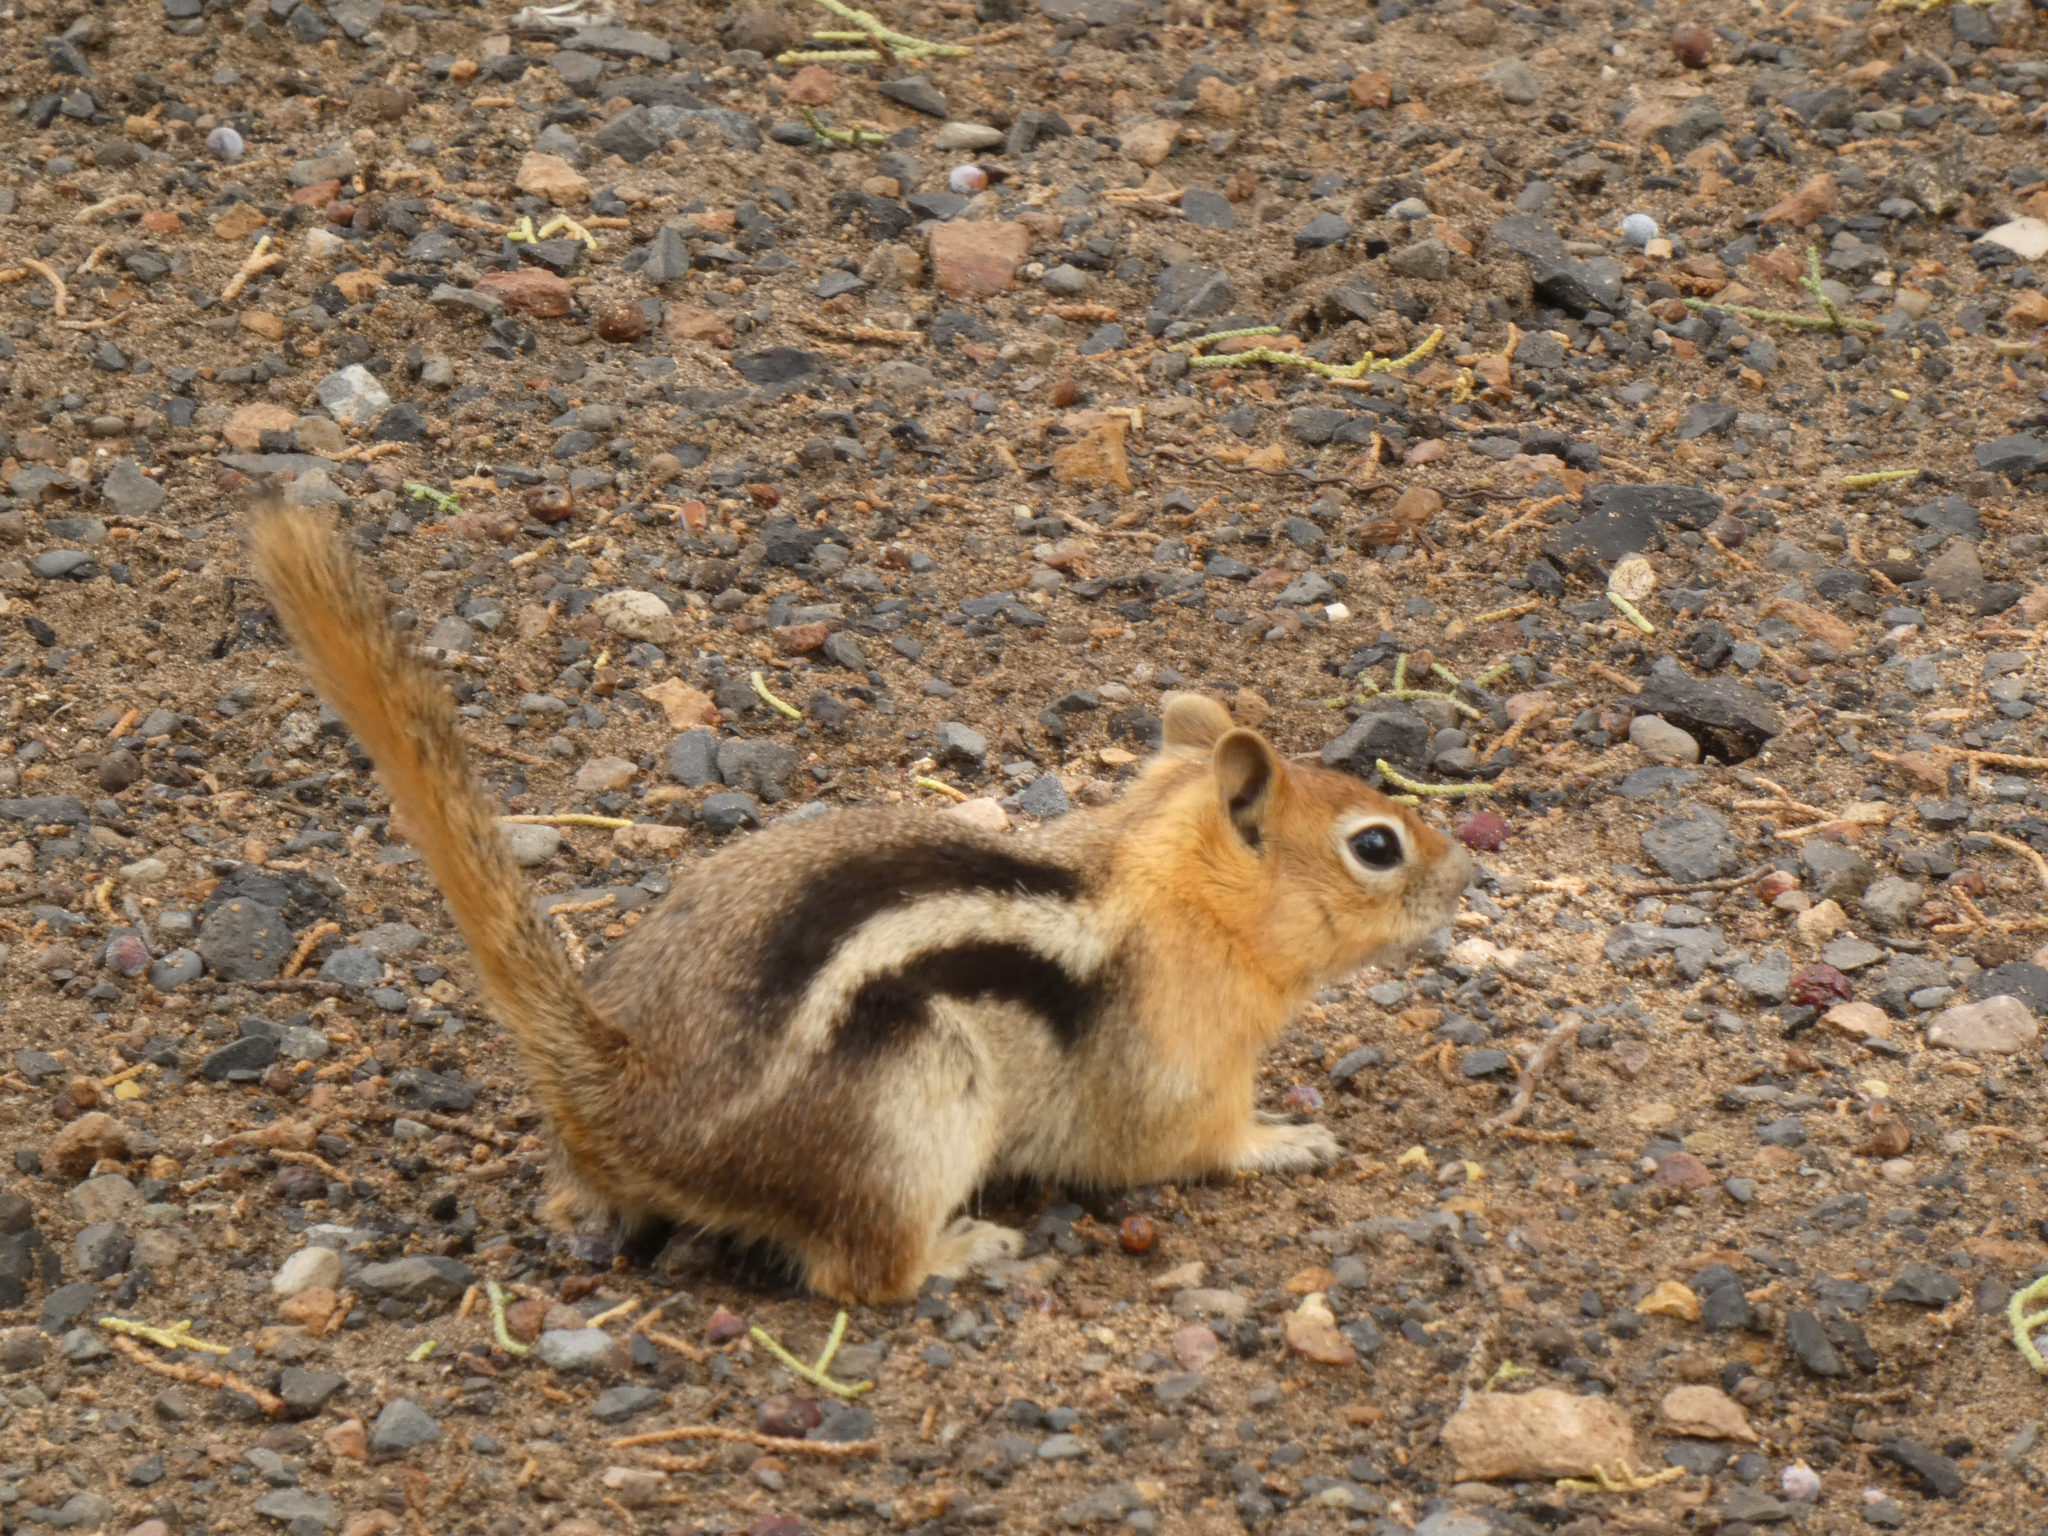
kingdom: Animalia
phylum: Chordata
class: Mammalia
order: Rodentia
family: Sciuridae
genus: Callospermophilus
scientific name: Callospermophilus lateralis
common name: Golden-mantled ground squirrel
